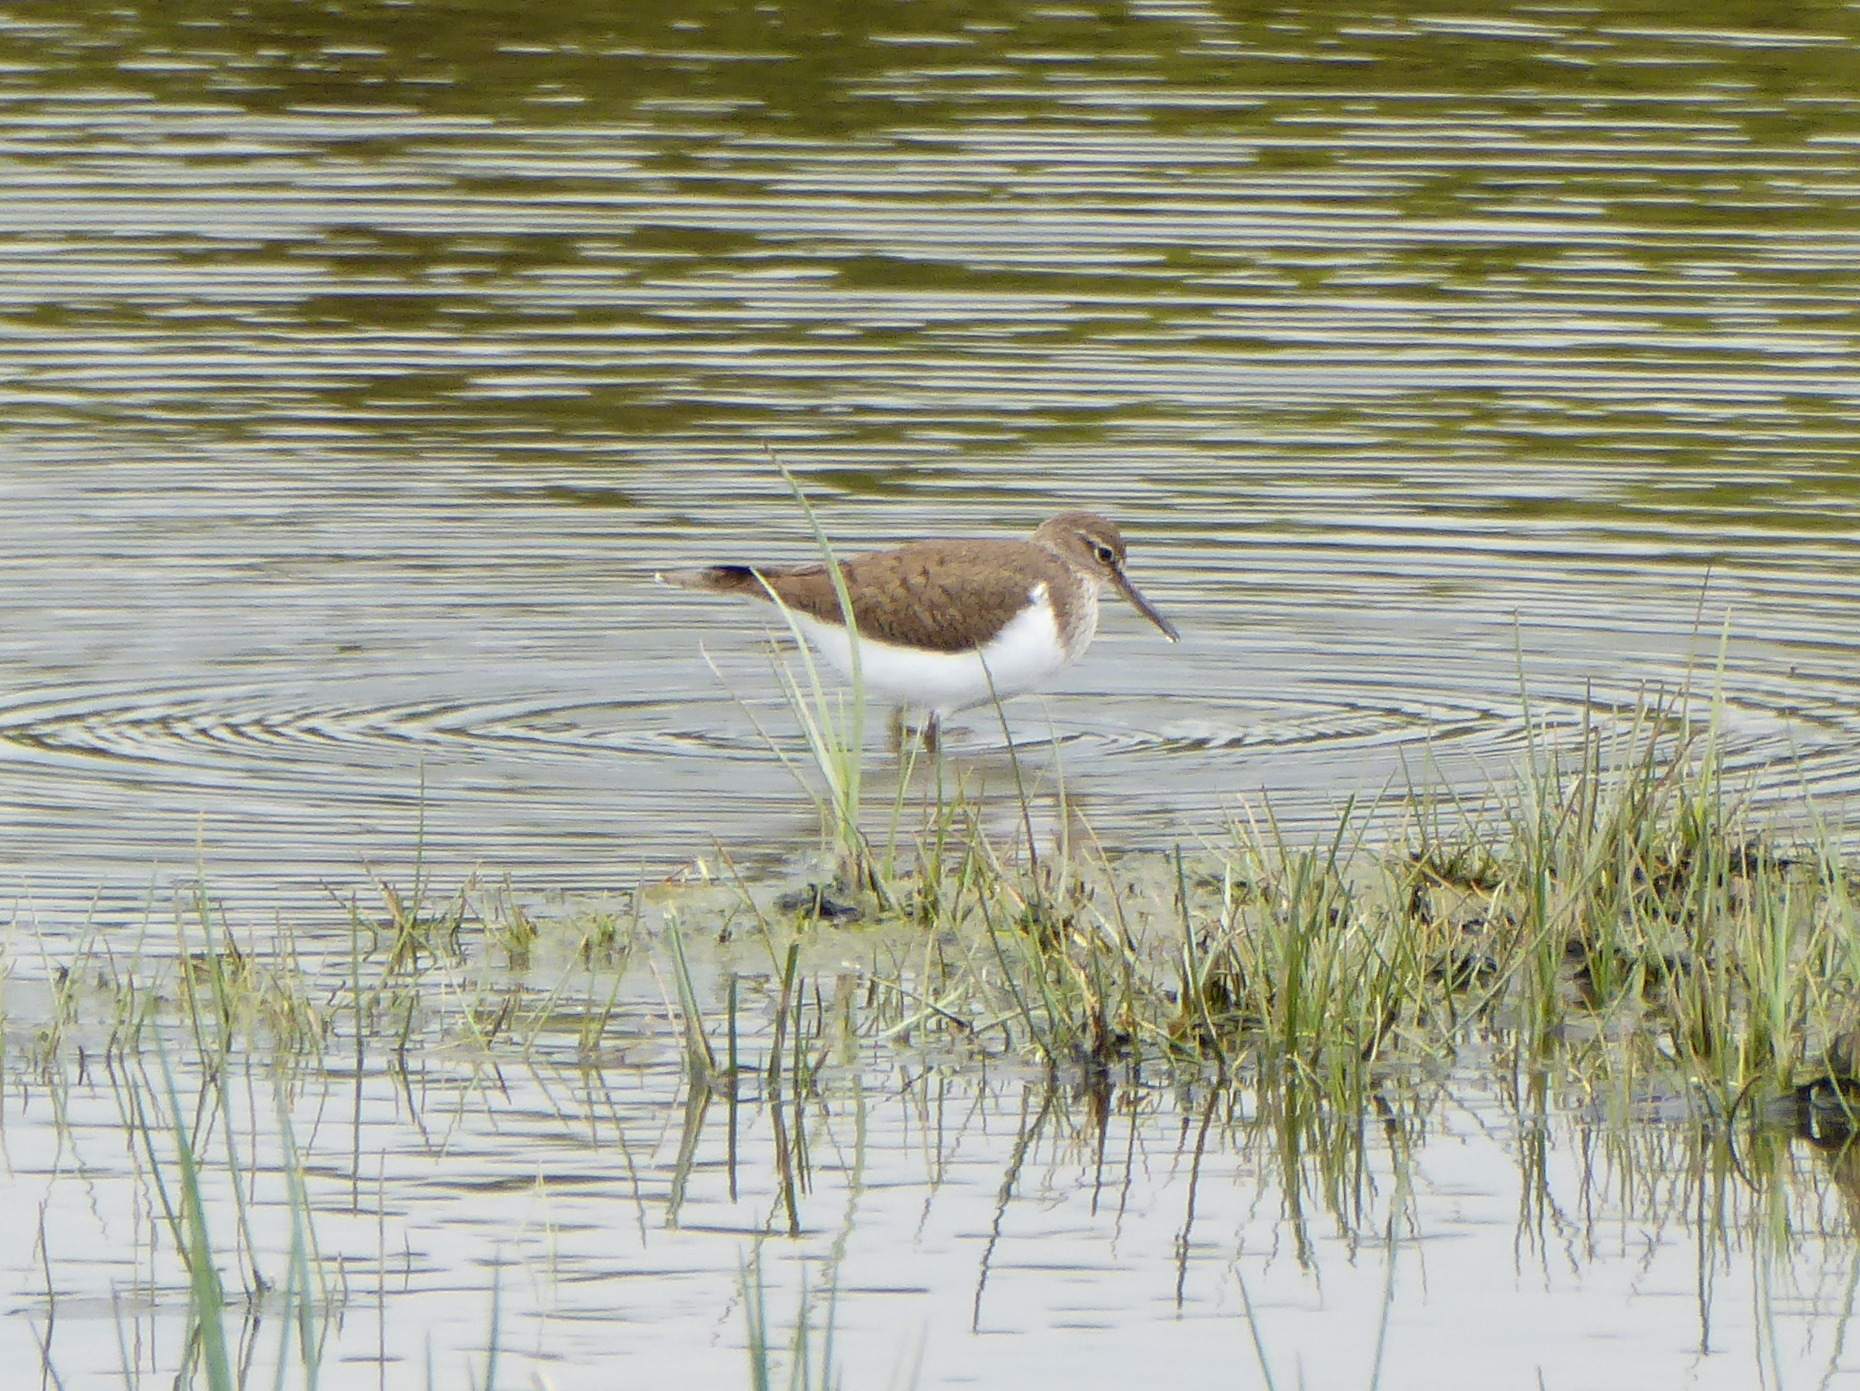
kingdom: Animalia
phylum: Chordata
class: Aves
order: Charadriiformes
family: Scolopacidae
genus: Actitis
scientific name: Actitis hypoleucos
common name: Common sandpiper
